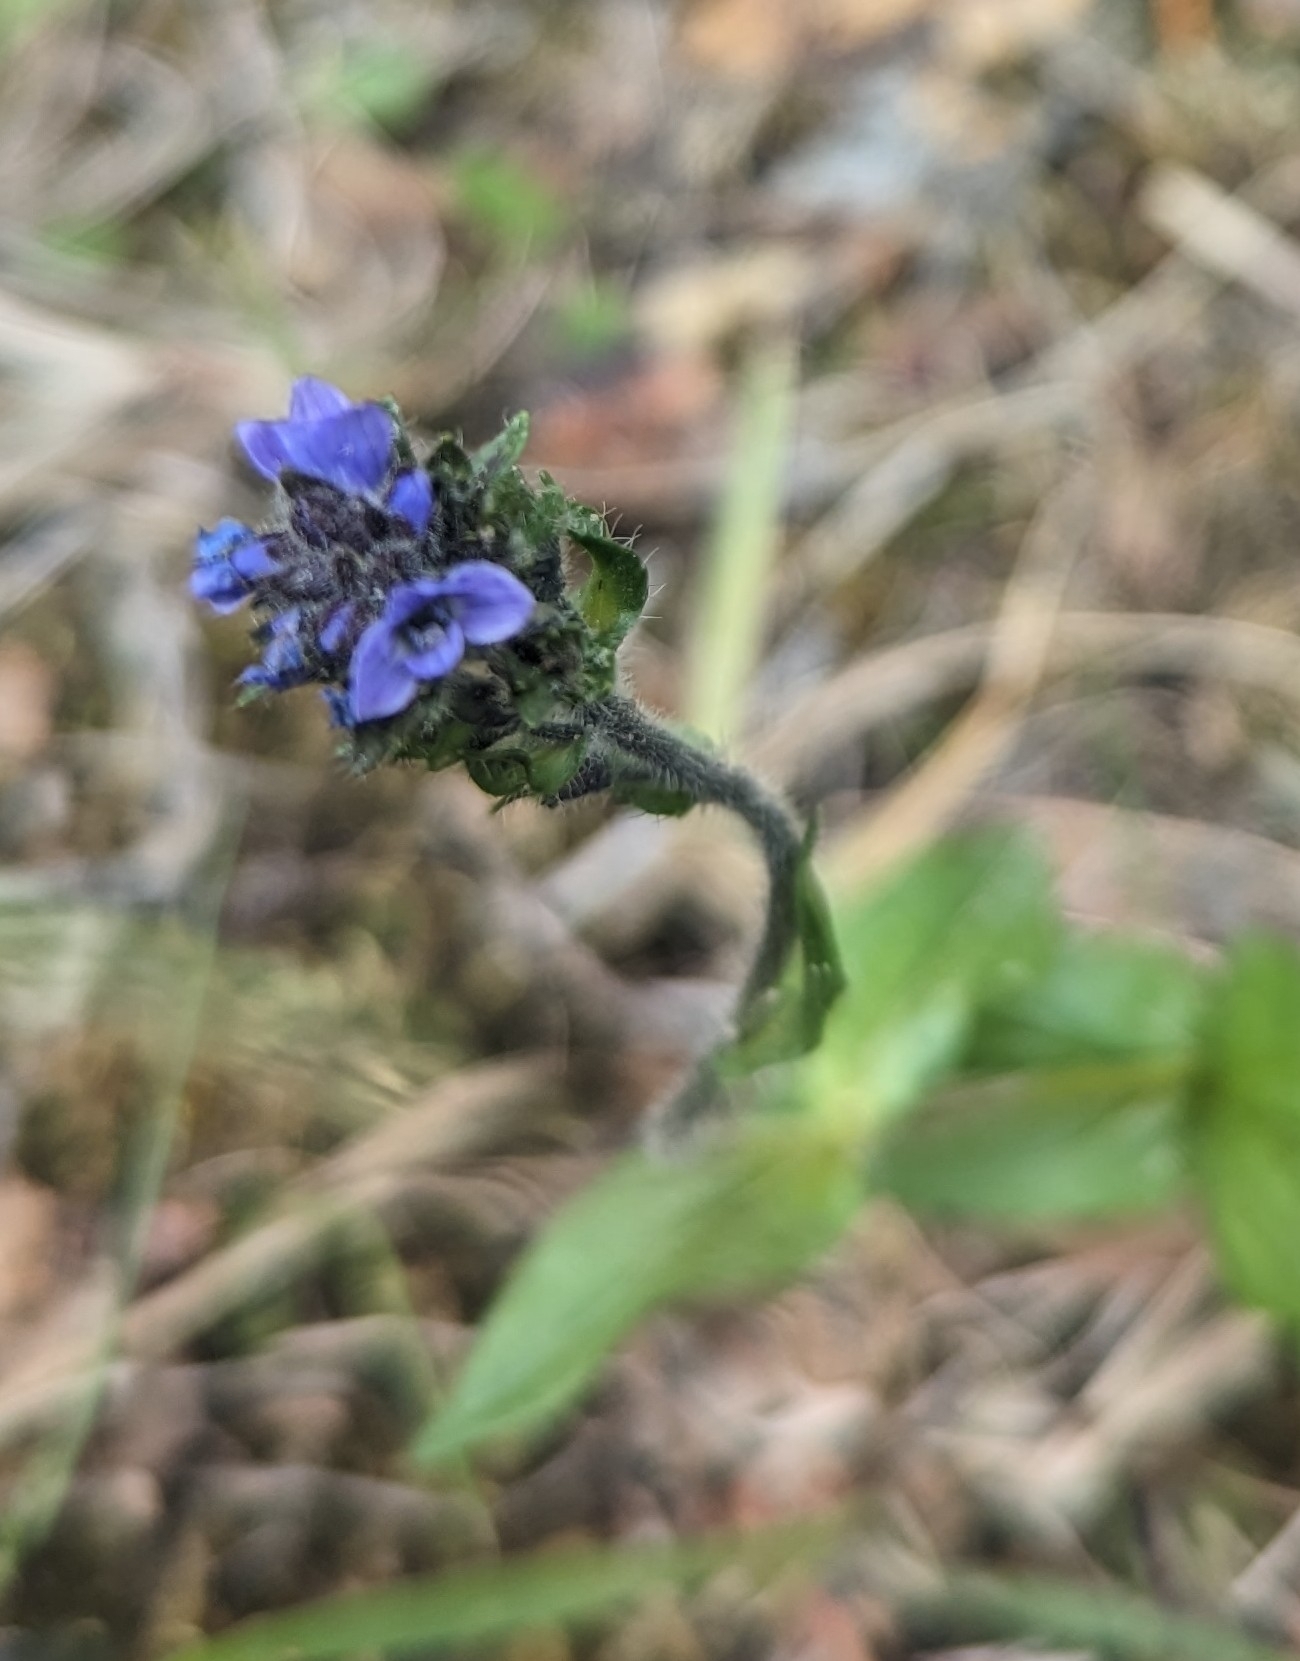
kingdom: Plantae
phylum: Tracheophyta
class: Magnoliopsida
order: Lamiales
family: Plantaginaceae
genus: Veronica
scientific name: Veronica wormskjoldii
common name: American alpine speedwell
